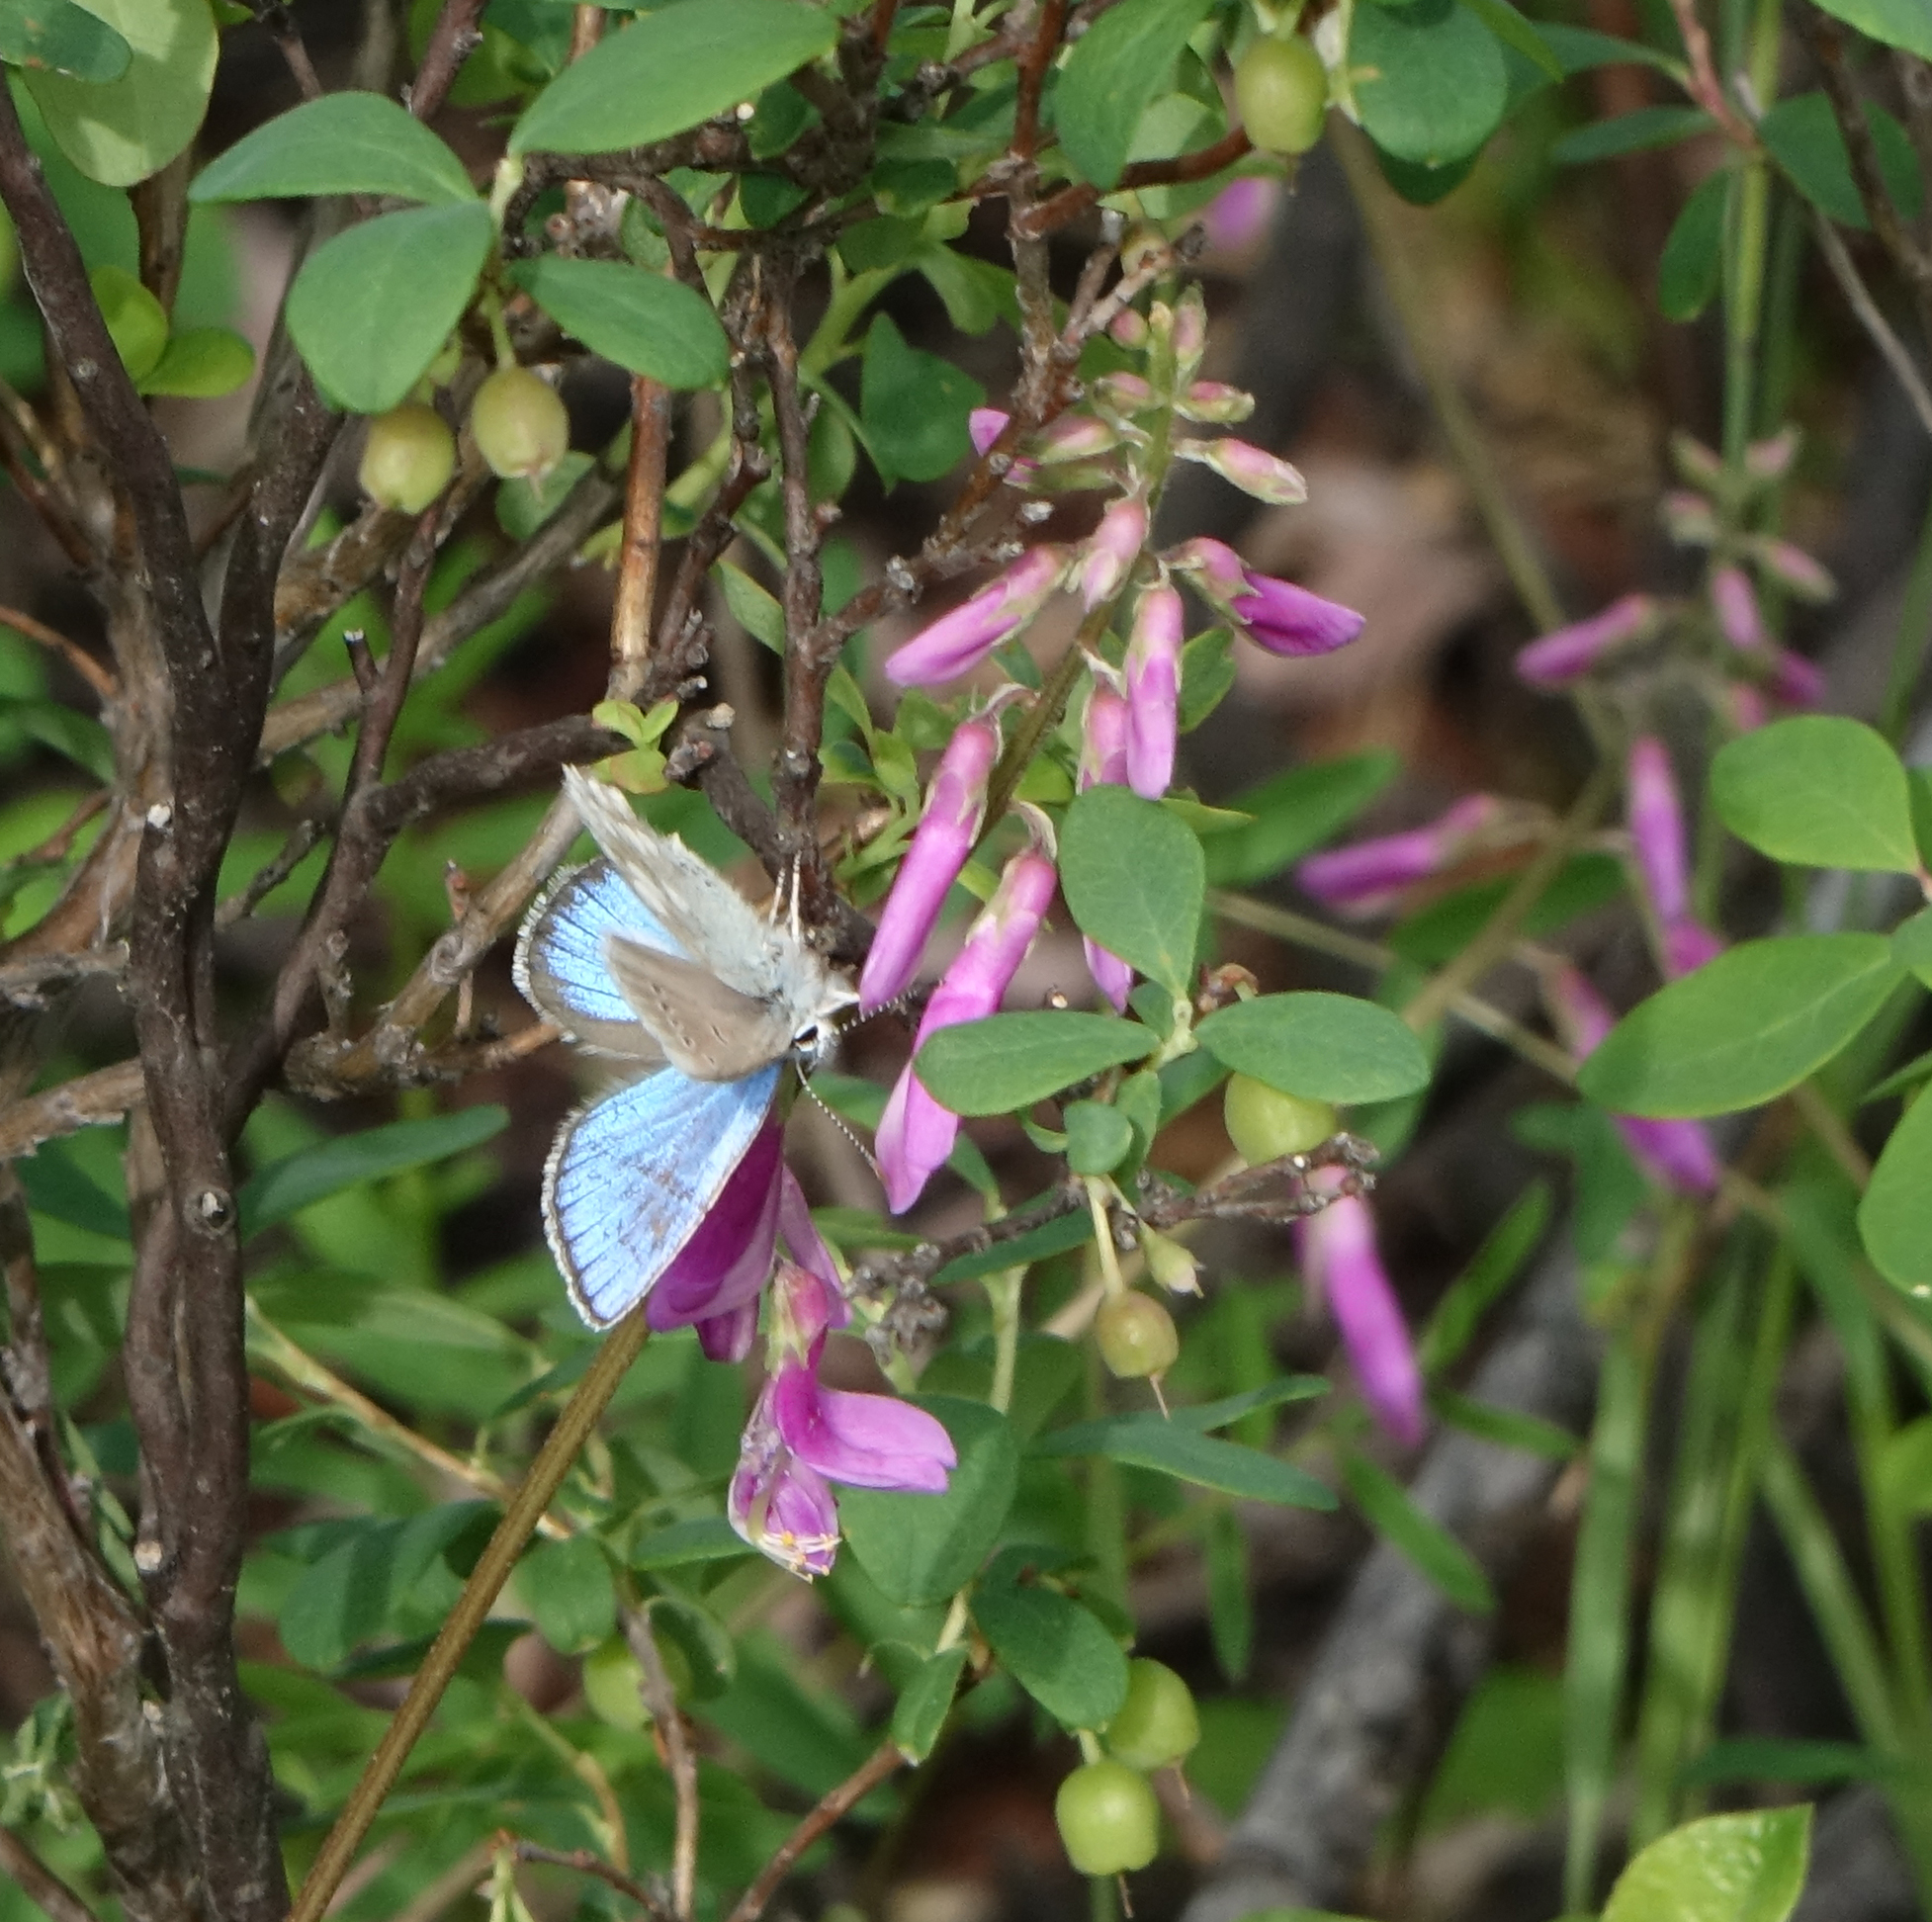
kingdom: Animalia
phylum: Arthropoda
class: Insecta
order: Lepidoptera
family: Lycaenidae
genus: Albulina
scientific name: Albulina orbitulus
